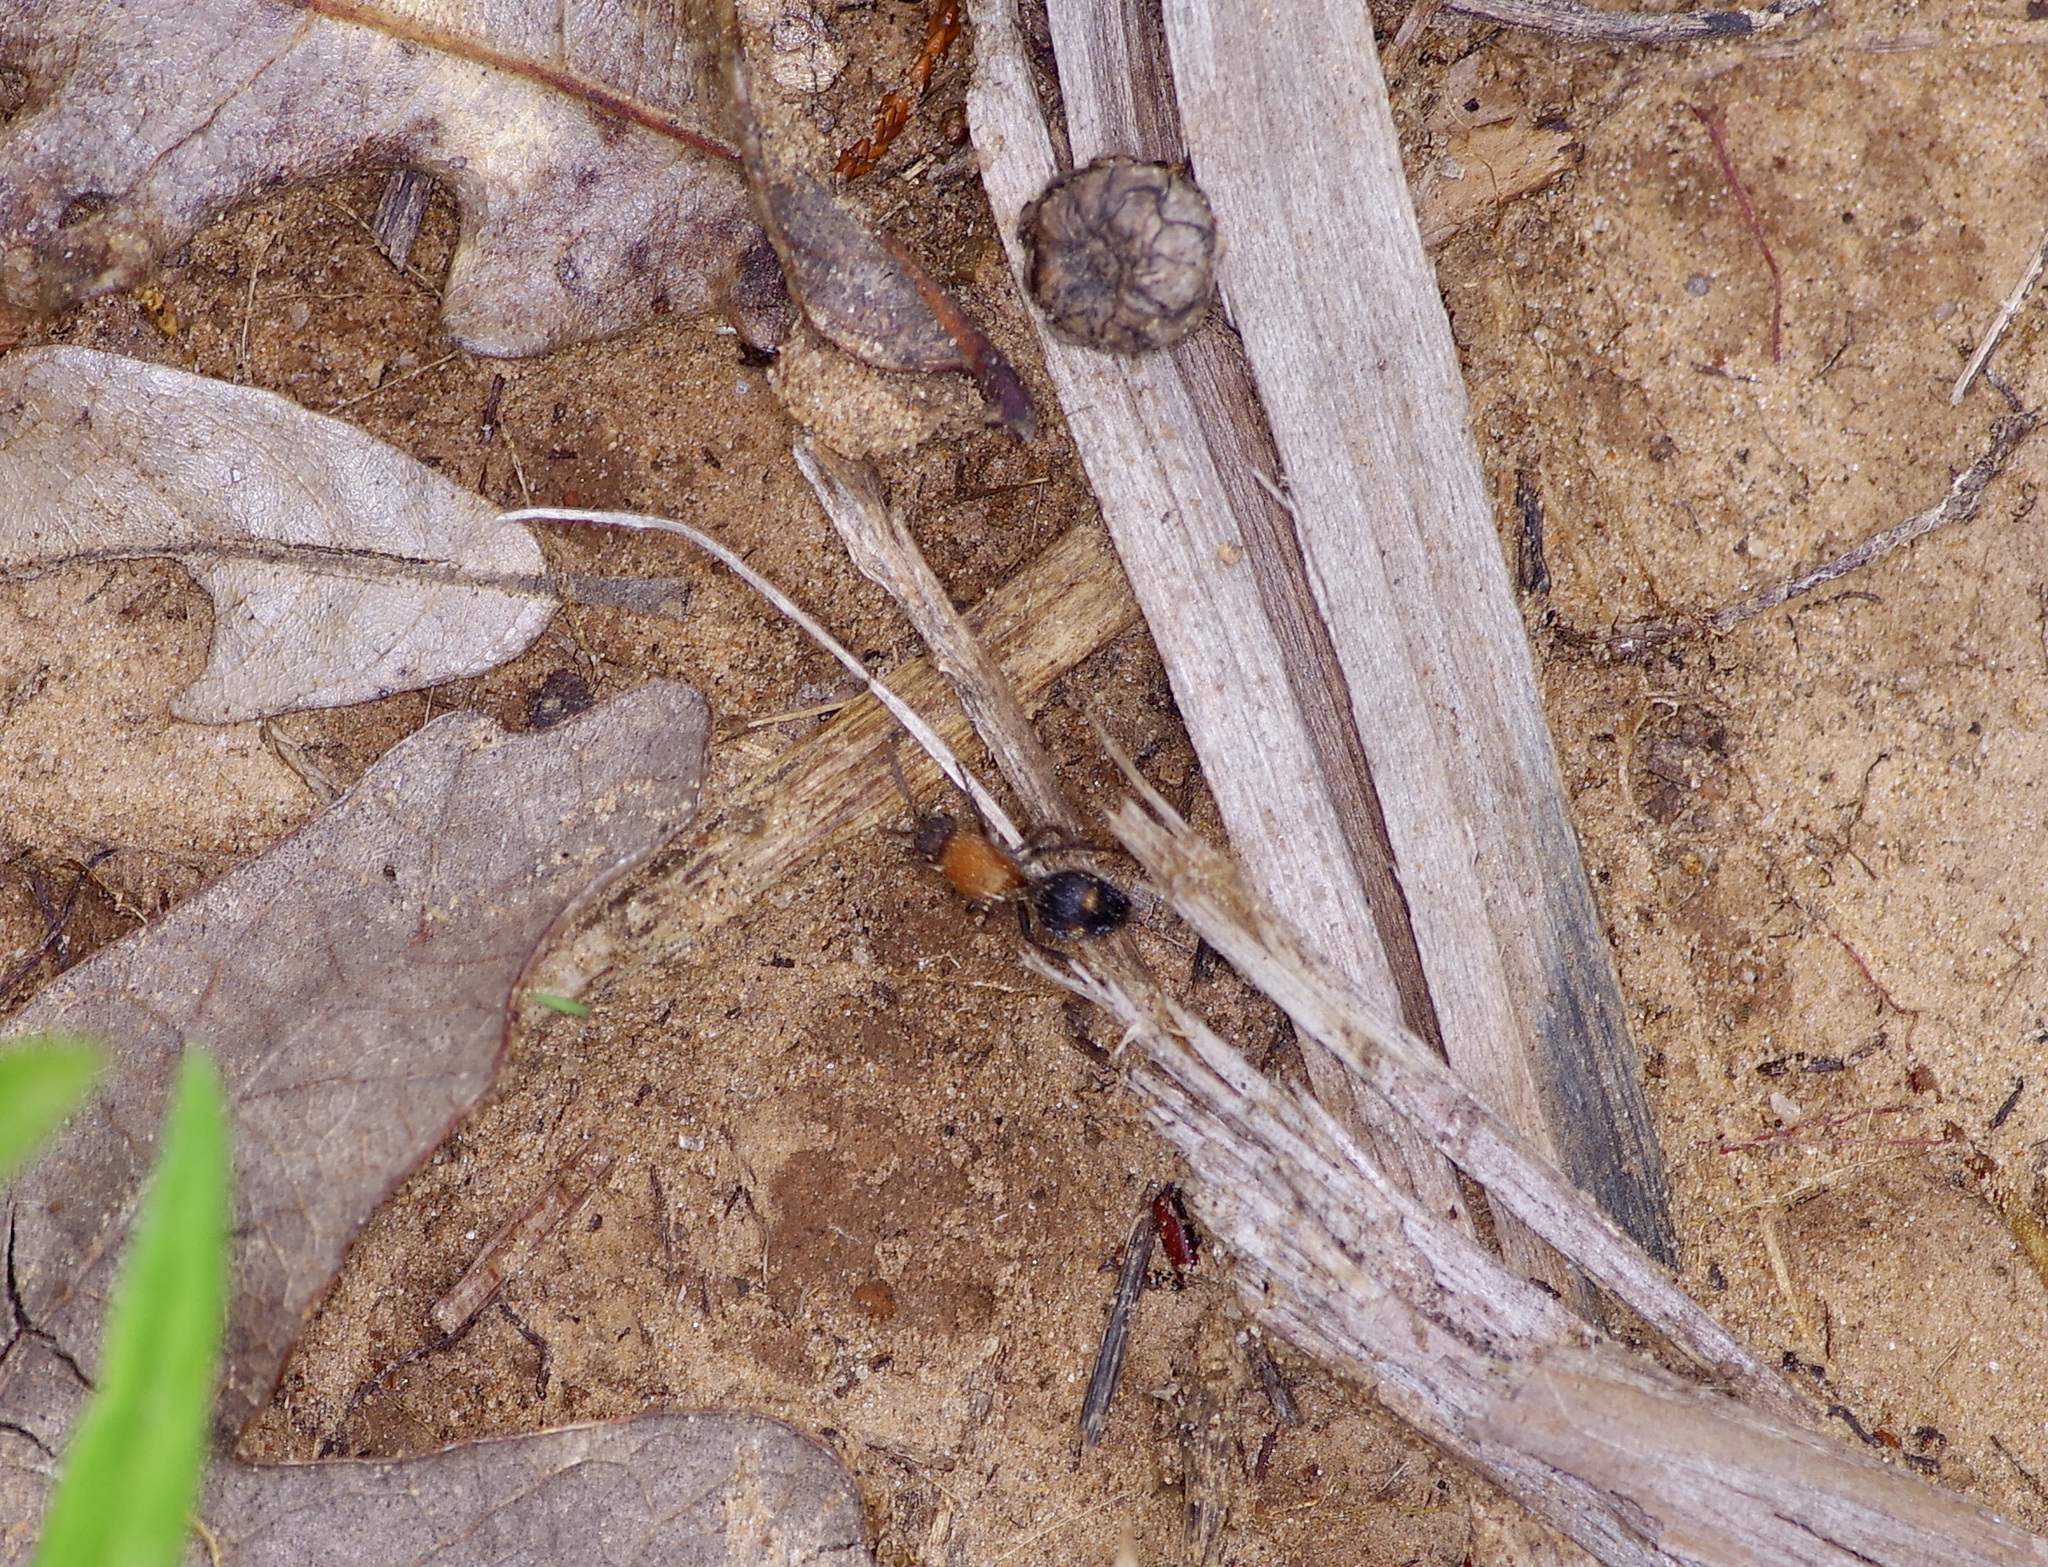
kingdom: Animalia
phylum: Arthropoda
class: Insecta
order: Hymenoptera
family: Mutillidae
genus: Dasymutilla
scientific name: Dasymutilla
